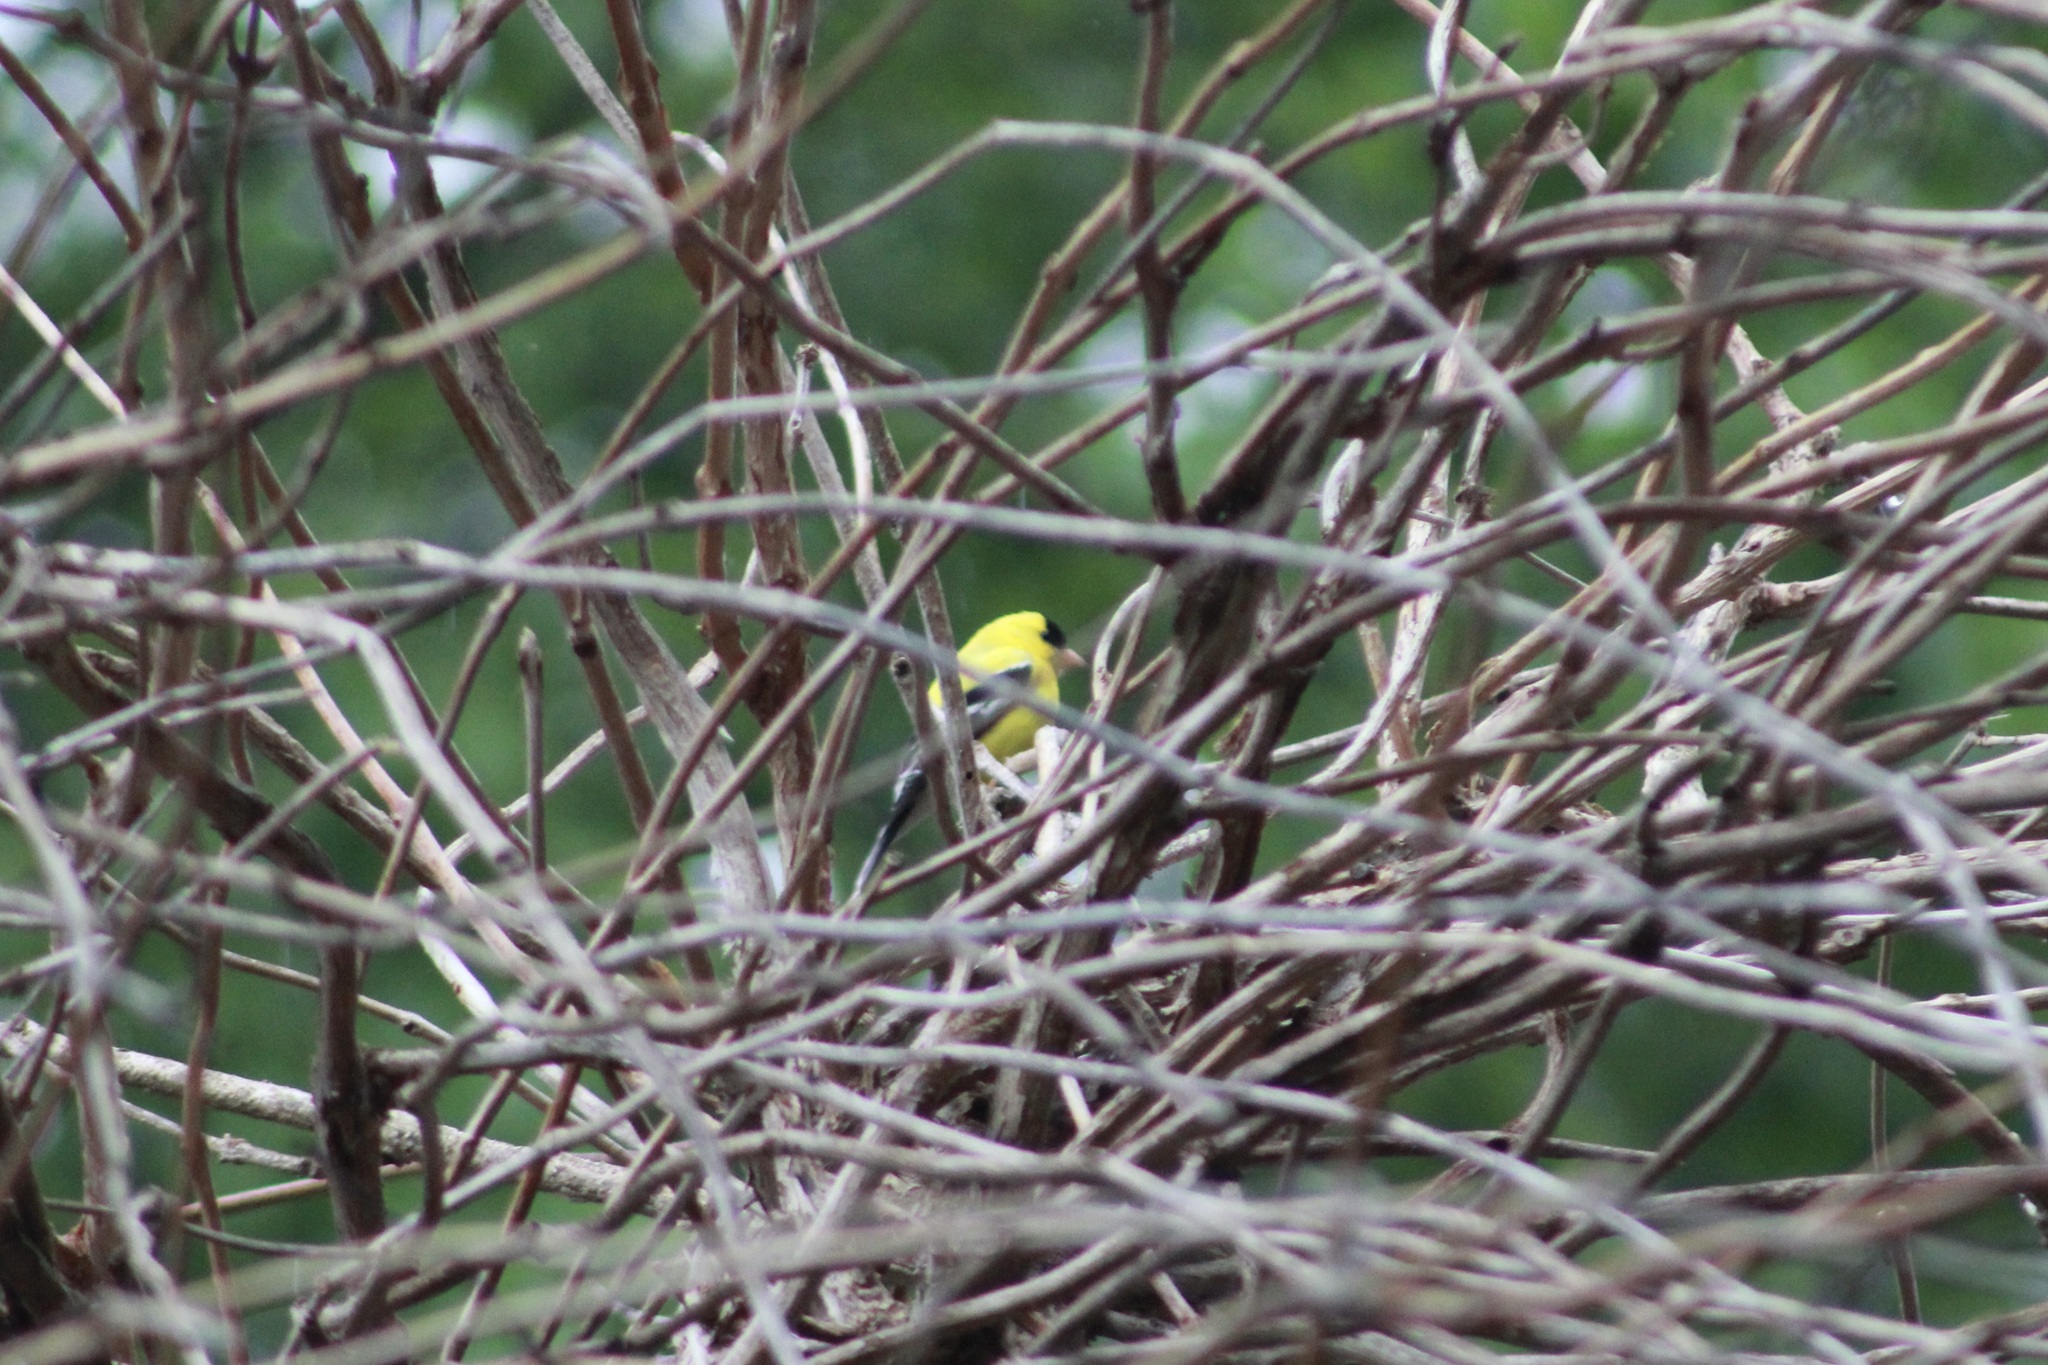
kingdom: Animalia
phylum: Chordata
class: Aves
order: Passeriformes
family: Fringillidae
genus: Spinus
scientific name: Spinus tristis
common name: American goldfinch
